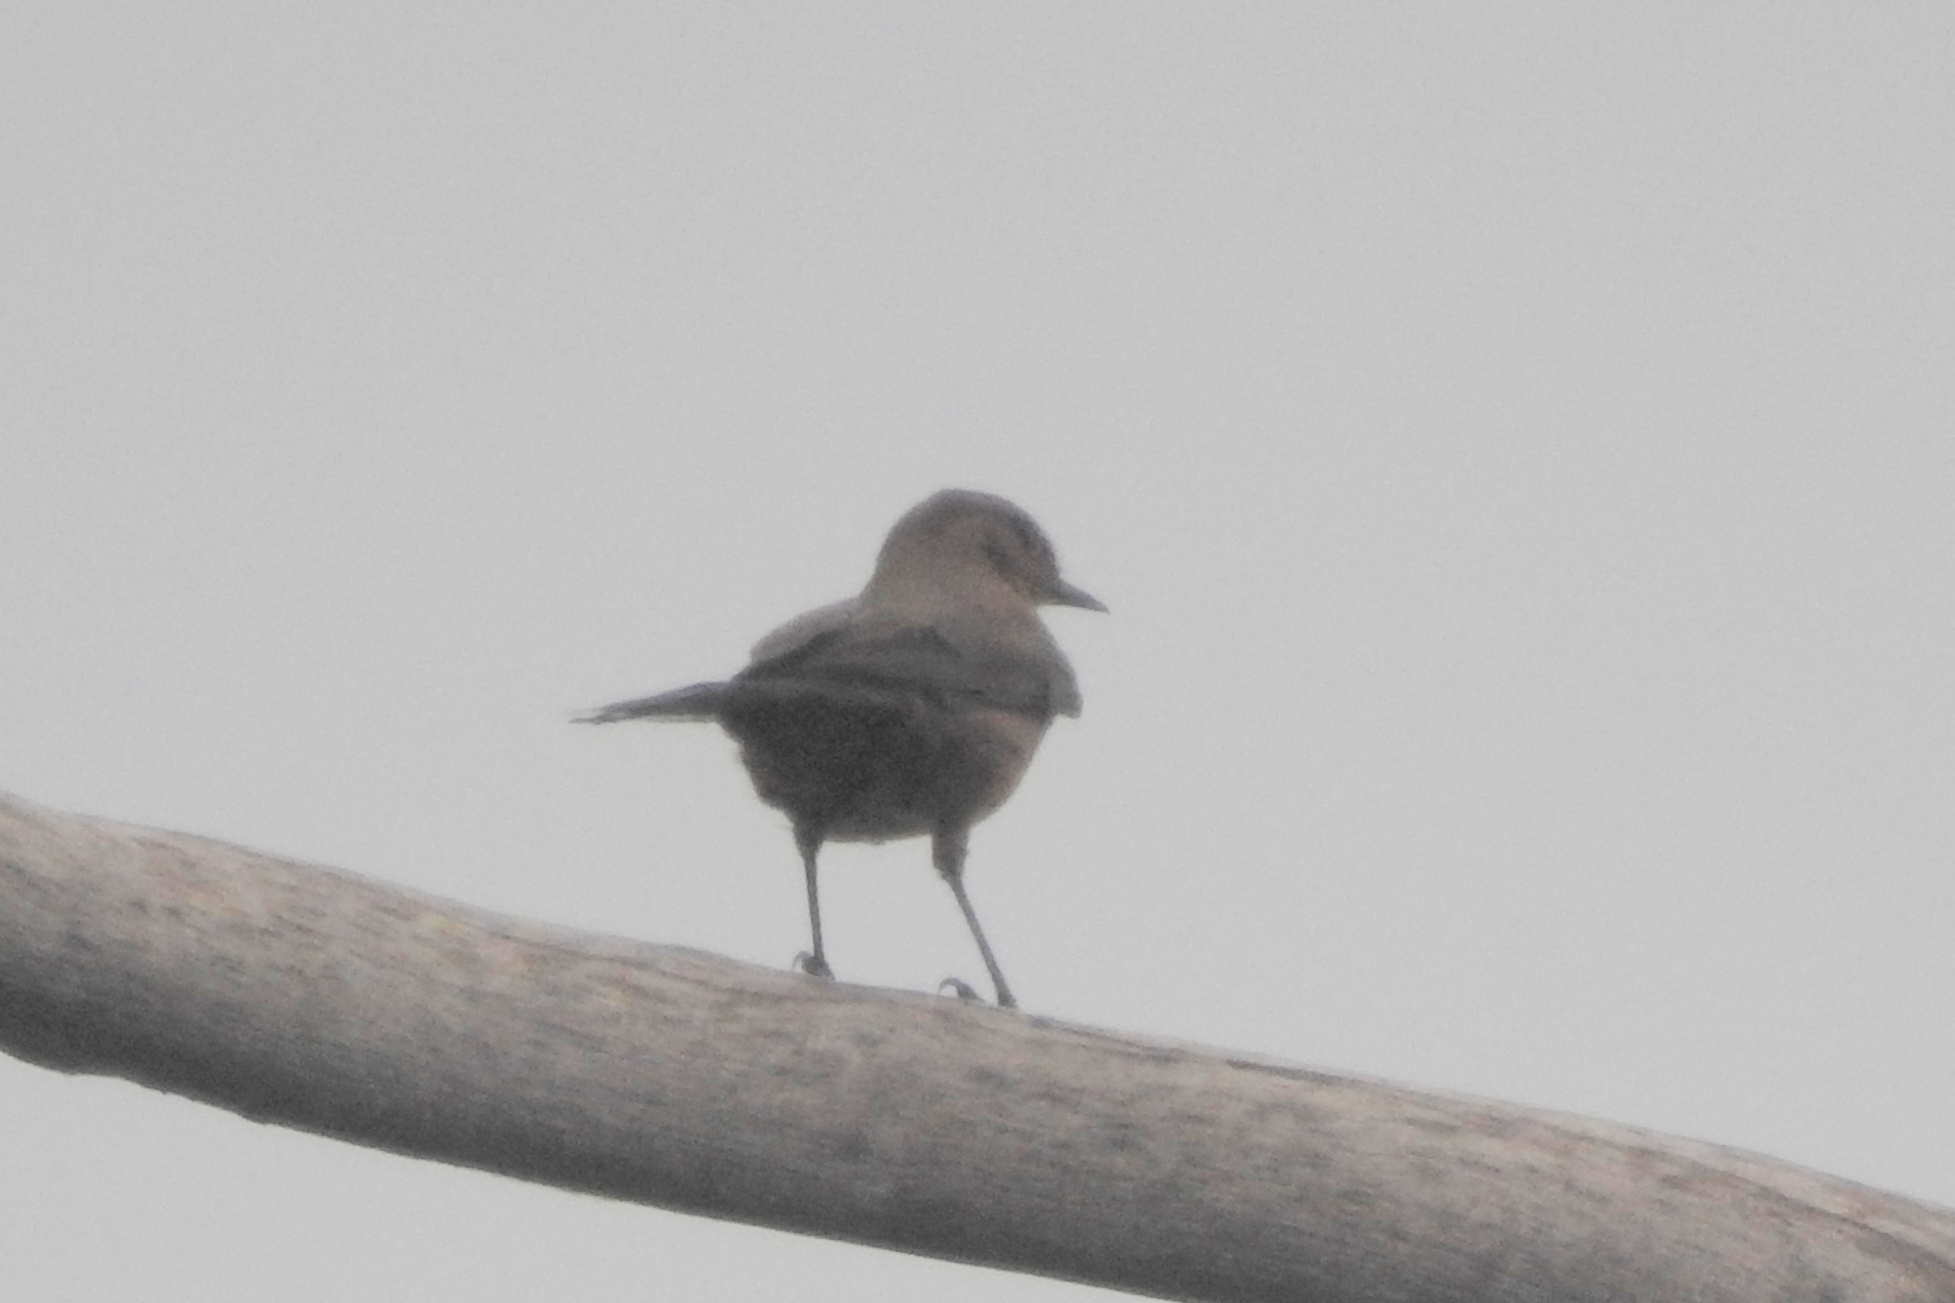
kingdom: Animalia
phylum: Chordata
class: Aves
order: Passeriformes
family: Muscicapidae
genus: Oenanthe
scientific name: Oenanthe fusca
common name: Brown rock chat
